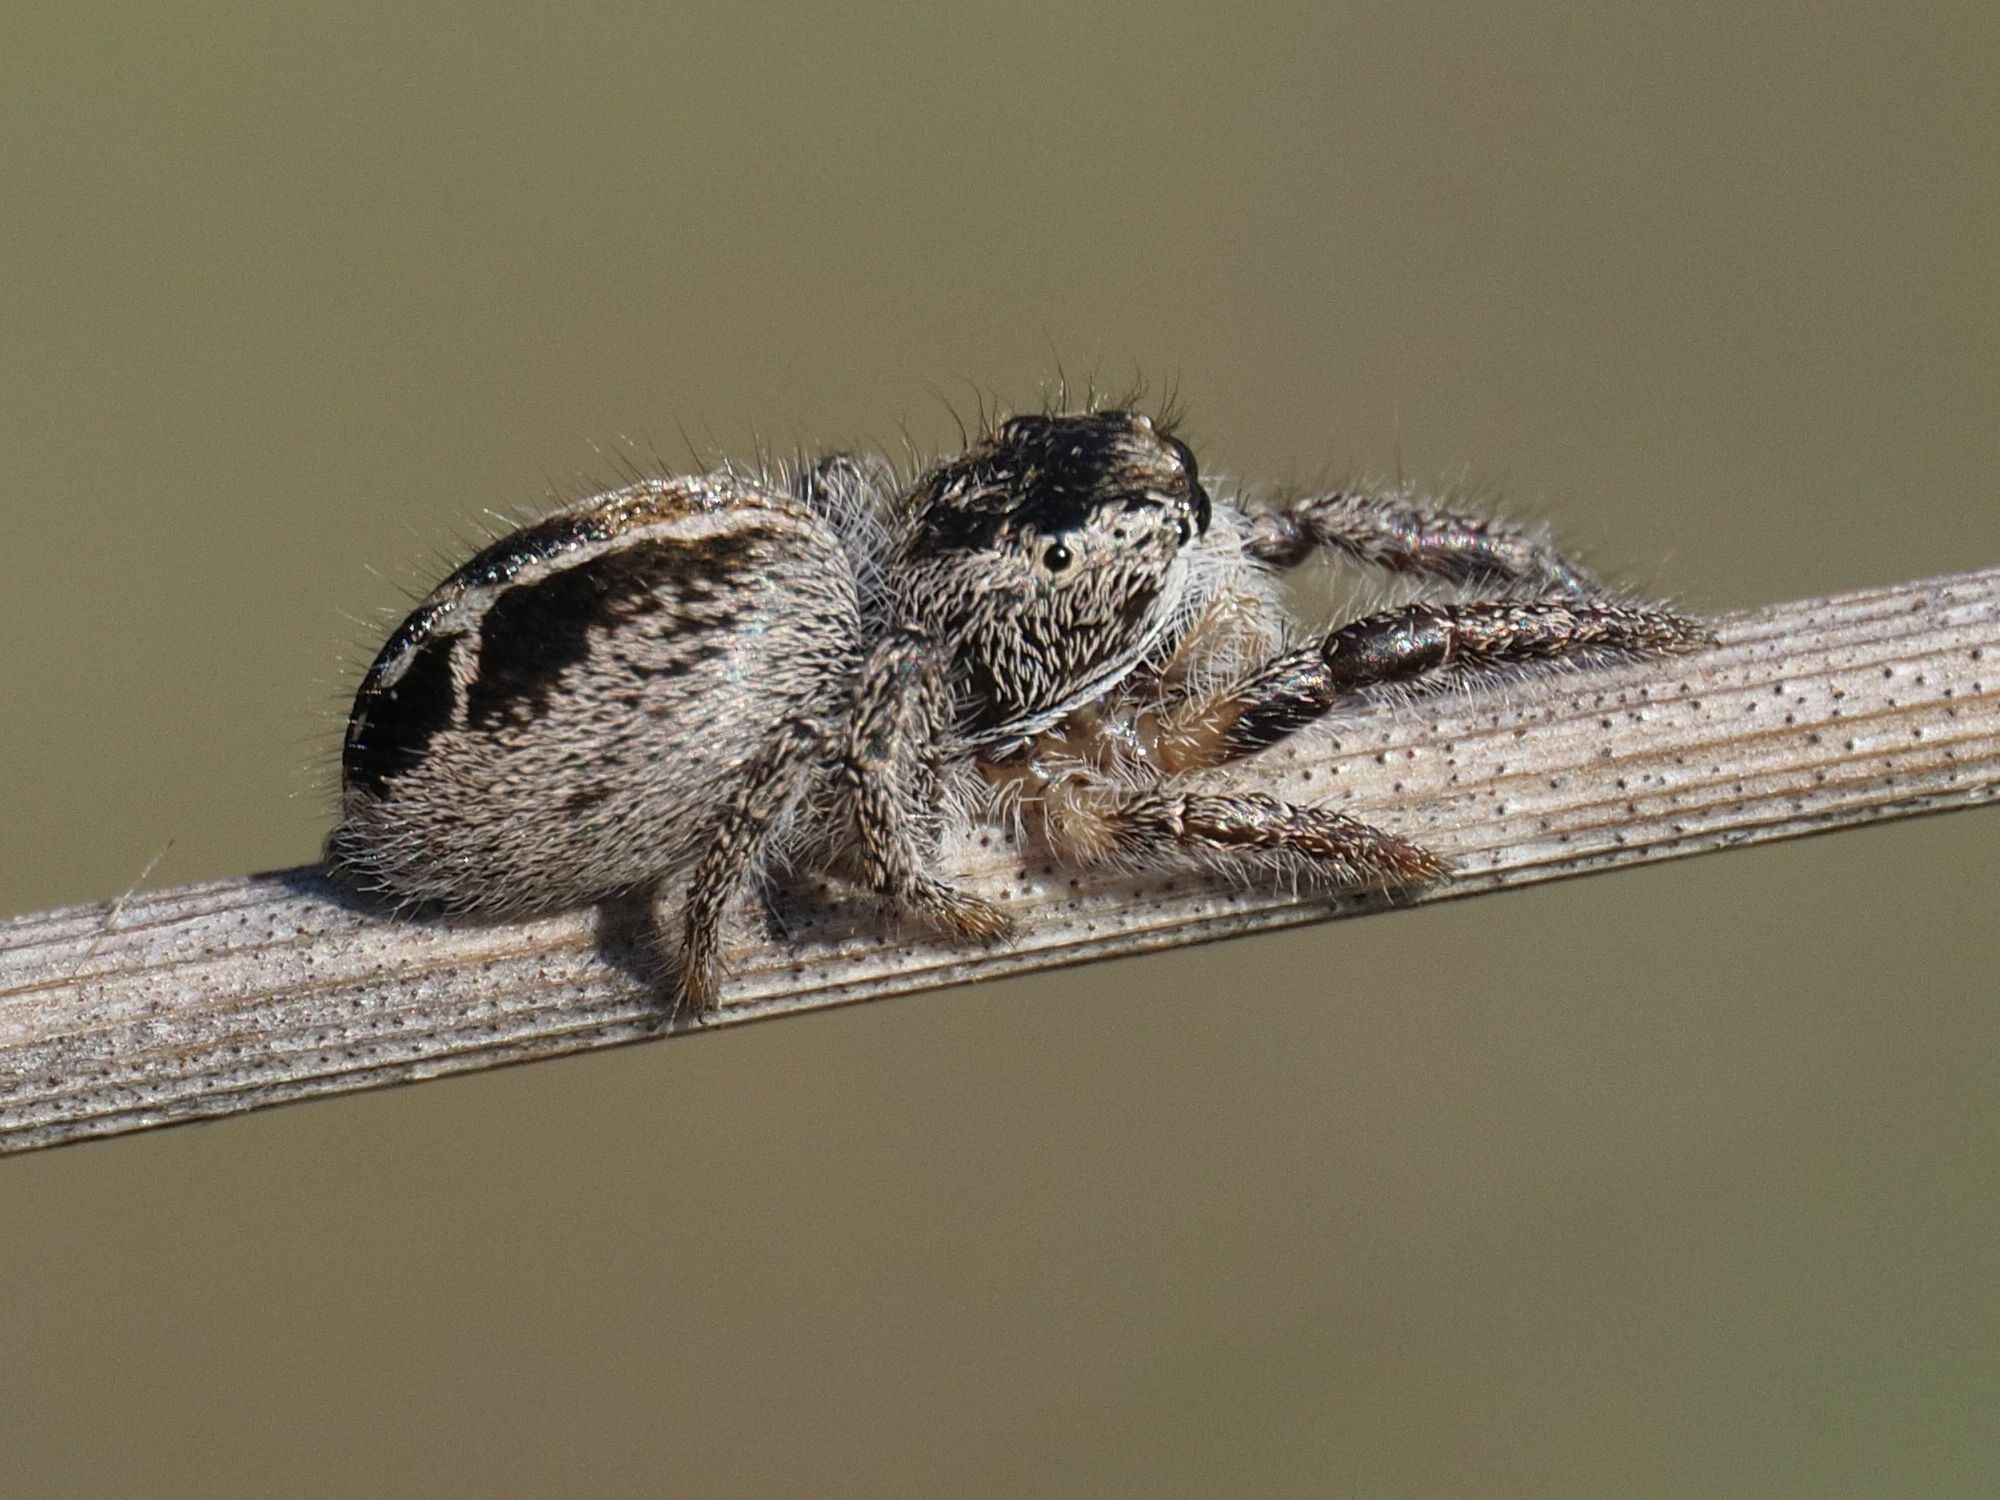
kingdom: Animalia
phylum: Arthropoda
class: Arachnida
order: Araneae
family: Salticidae
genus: Pellenes
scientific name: Pellenes tripunctatus
